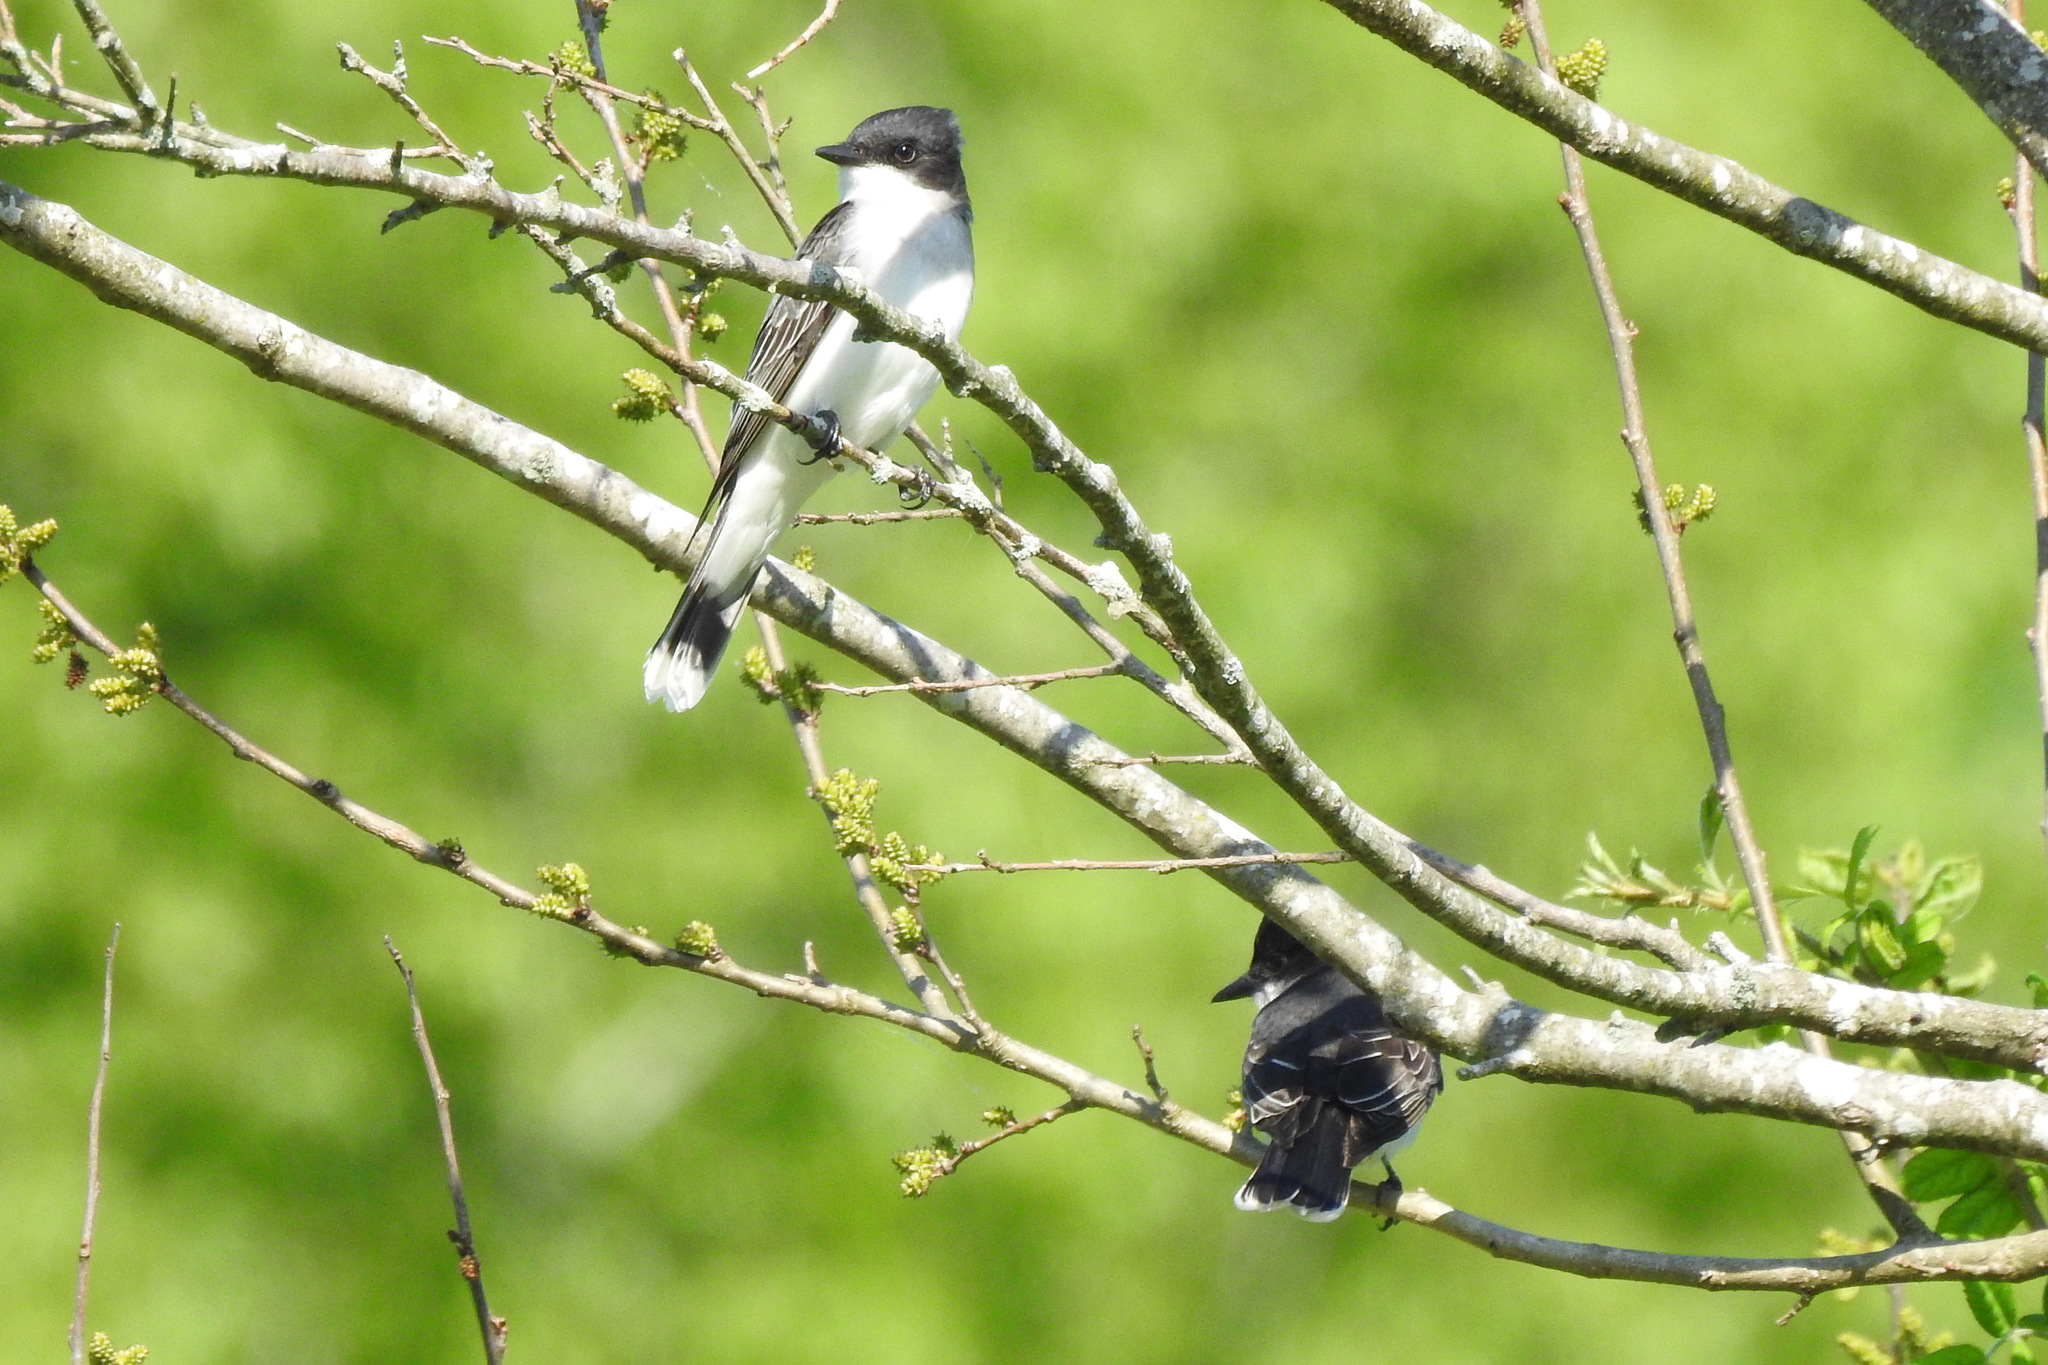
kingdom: Animalia
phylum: Chordata
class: Aves
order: Passeriformes
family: Tyrannidae
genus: Tyrannus
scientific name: Tyrannus tyrannus
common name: Eastern kingbird
